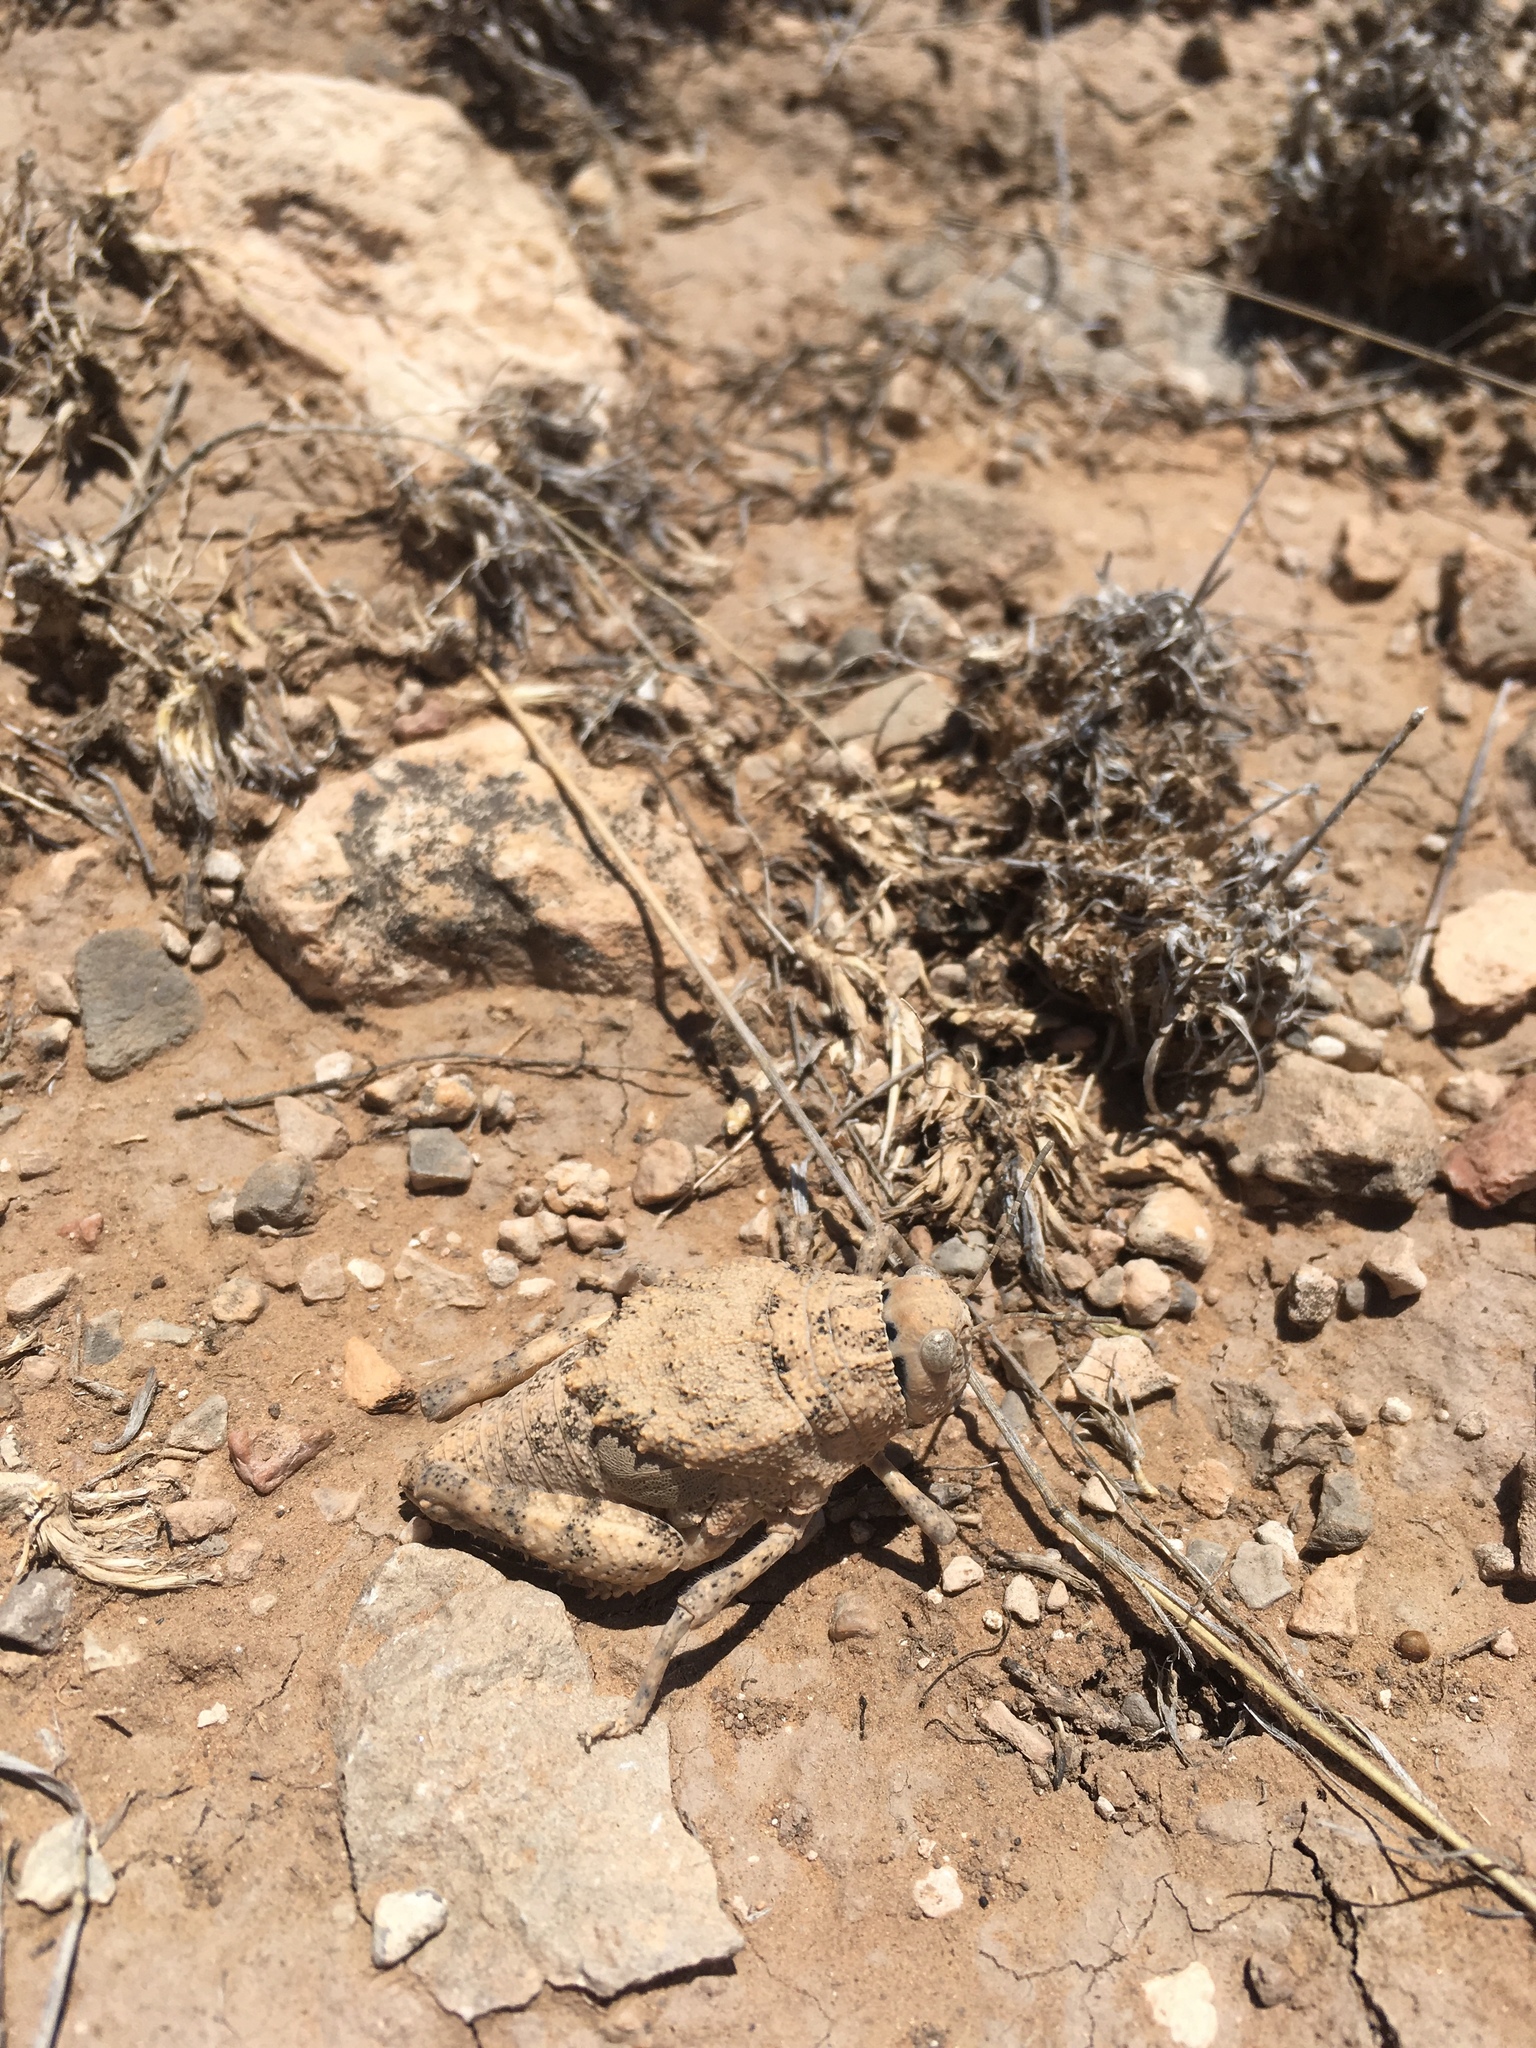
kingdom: Animalia
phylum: Arthropoda
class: Insecta
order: Orthoptera
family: Romaleidae
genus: Phrynotettix
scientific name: Phrynotettix robustus
